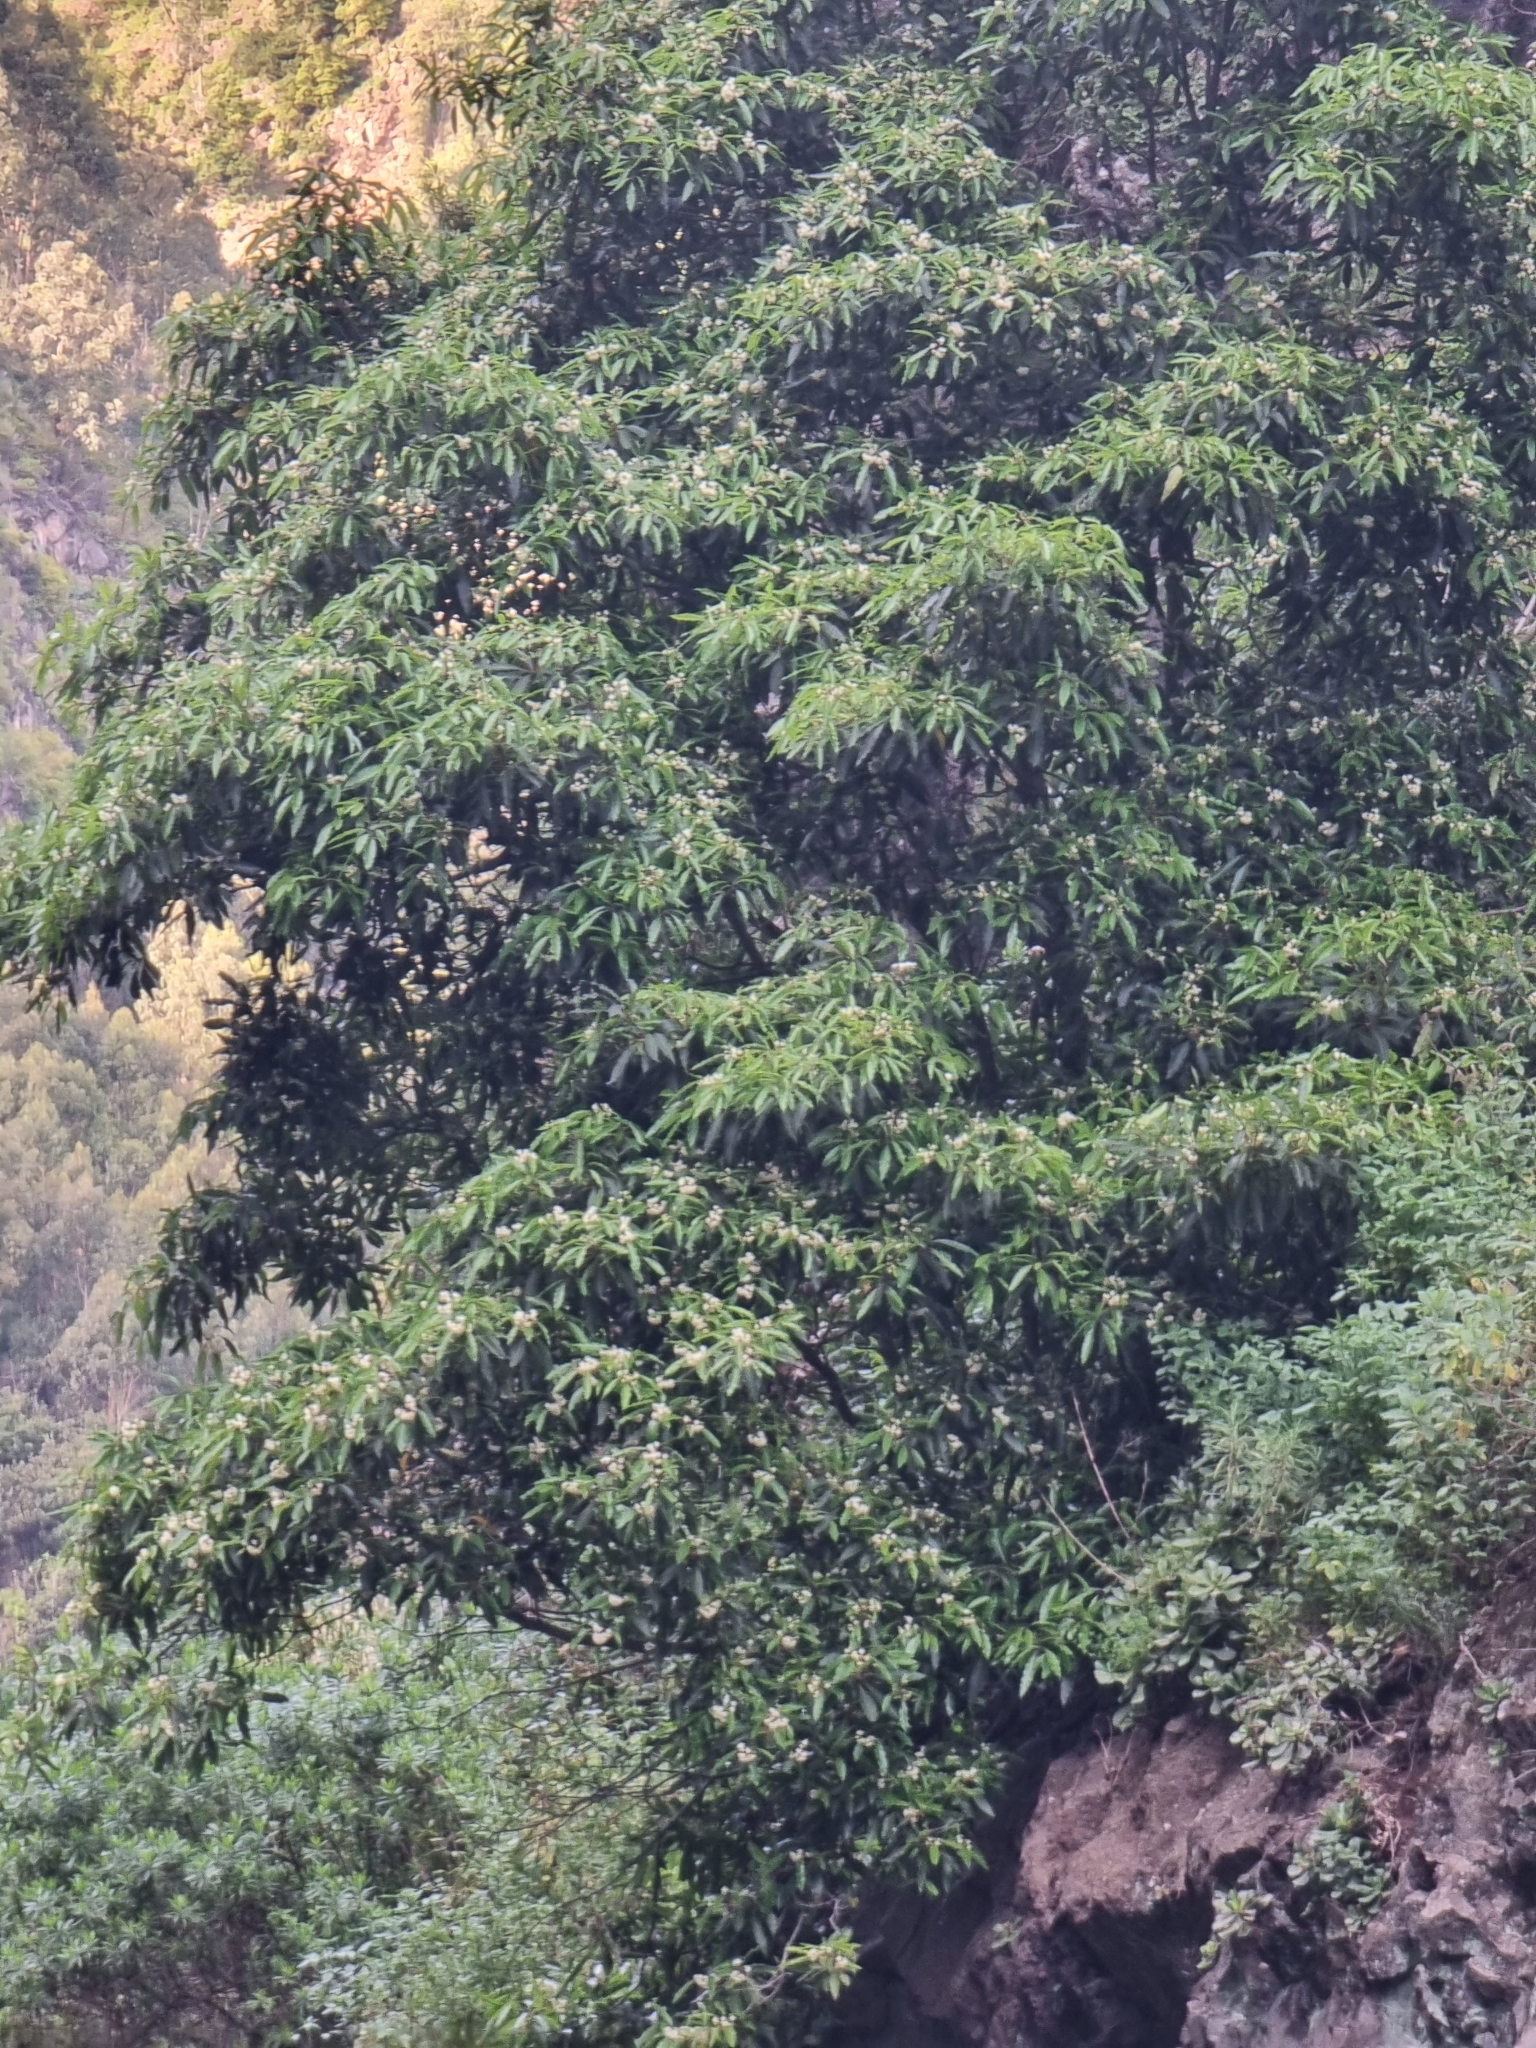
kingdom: Plantae
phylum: Tracheophyta
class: Magnoliopsida
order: Apiales
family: Pittosporaceae
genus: Pittosporum
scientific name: Pittosporum undulatum
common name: Australian cheesewood
